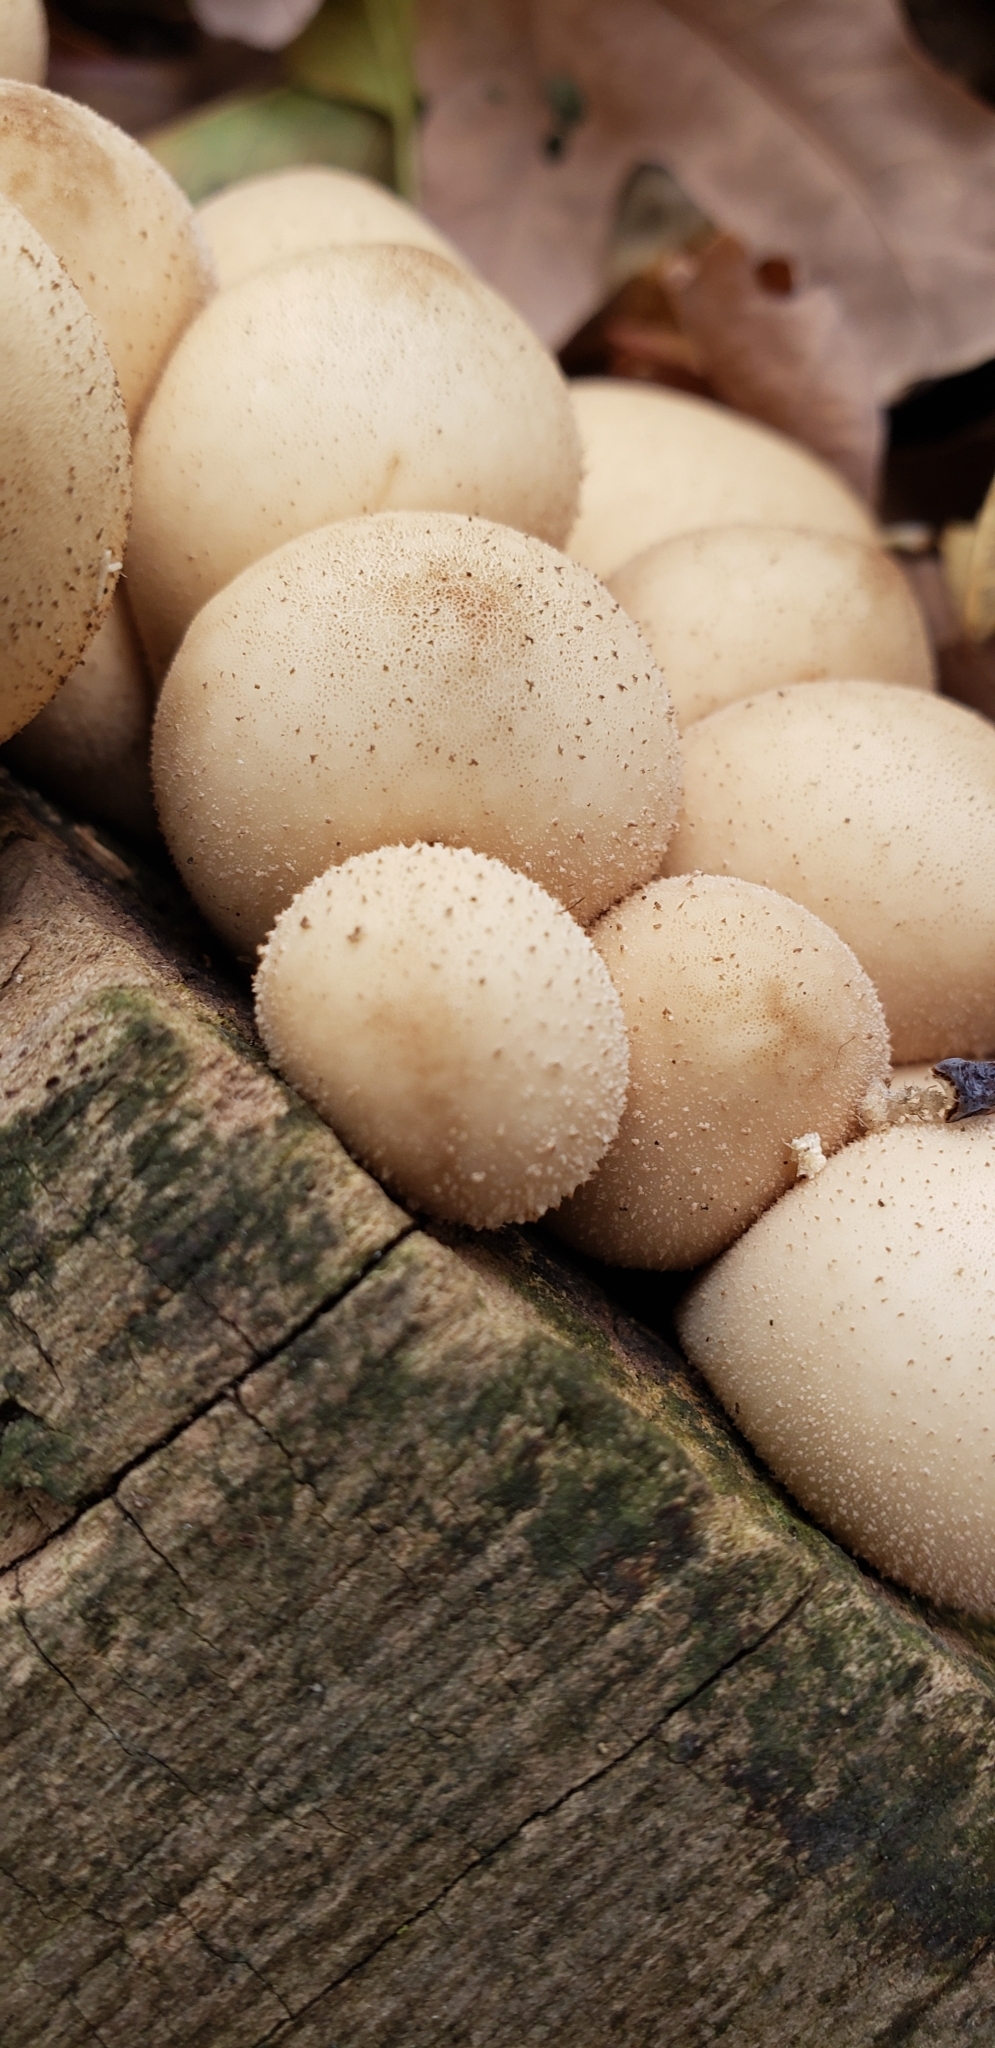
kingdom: Fungi
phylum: Basidiomycota
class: Agaricomycetes
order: Agaricales
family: Lycoperdaceae
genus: Apioperdon
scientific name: Apioperdon pyriforme
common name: Pear-shaped puffball
